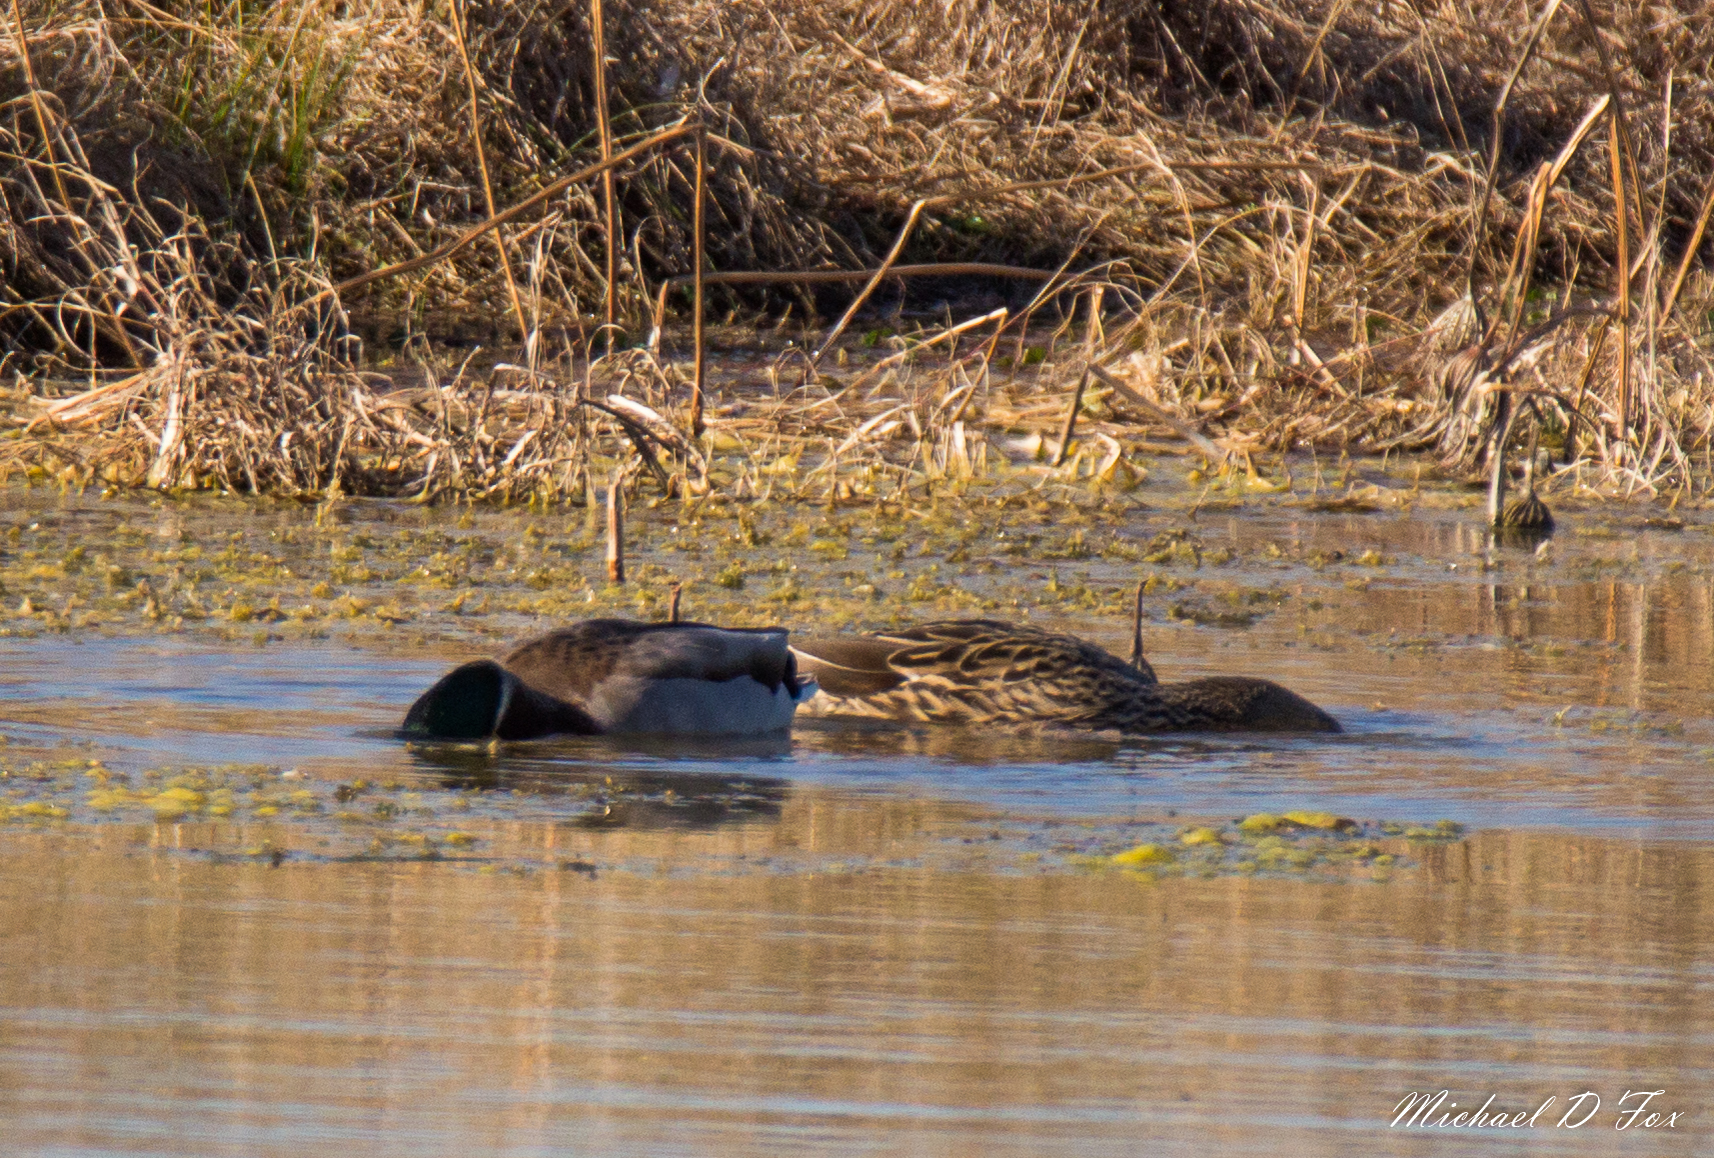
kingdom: Animalia
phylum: Chordata
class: Aves
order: Anseriformes
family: Anatidae
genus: Anas
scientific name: Anas platyrhynchos
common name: Mallard
